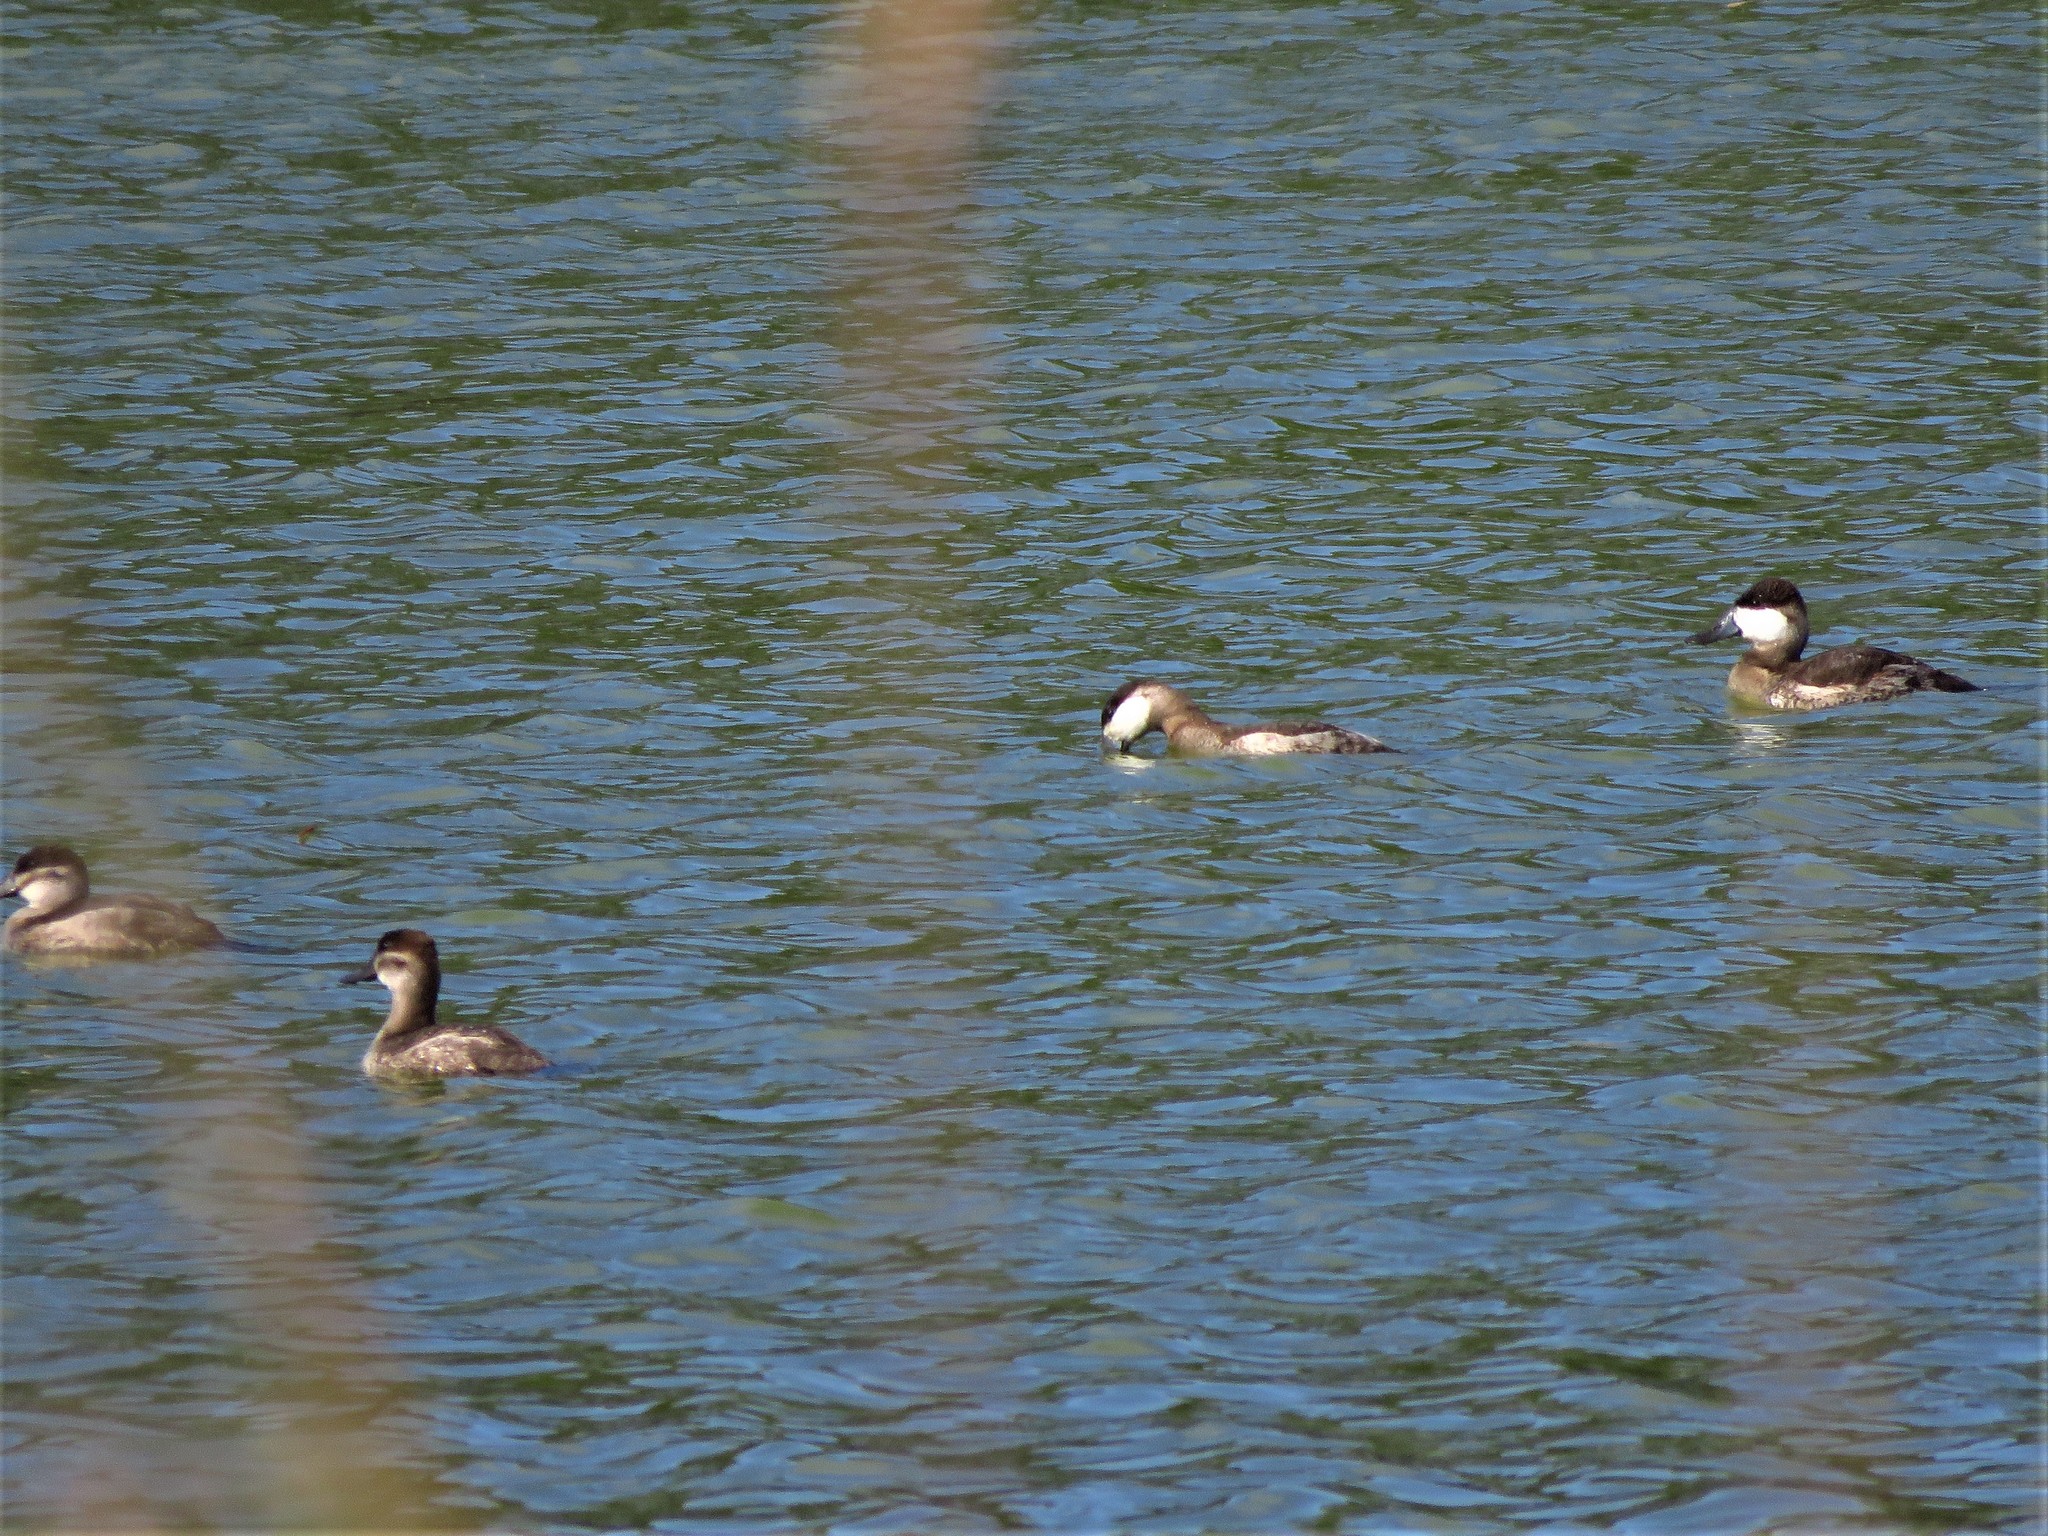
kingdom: Animalia
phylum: Chordata
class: Aves
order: Anseriformes
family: Anatidae
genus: Oxyura
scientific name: Oxyura jamaicensis
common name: Ruddy duck
